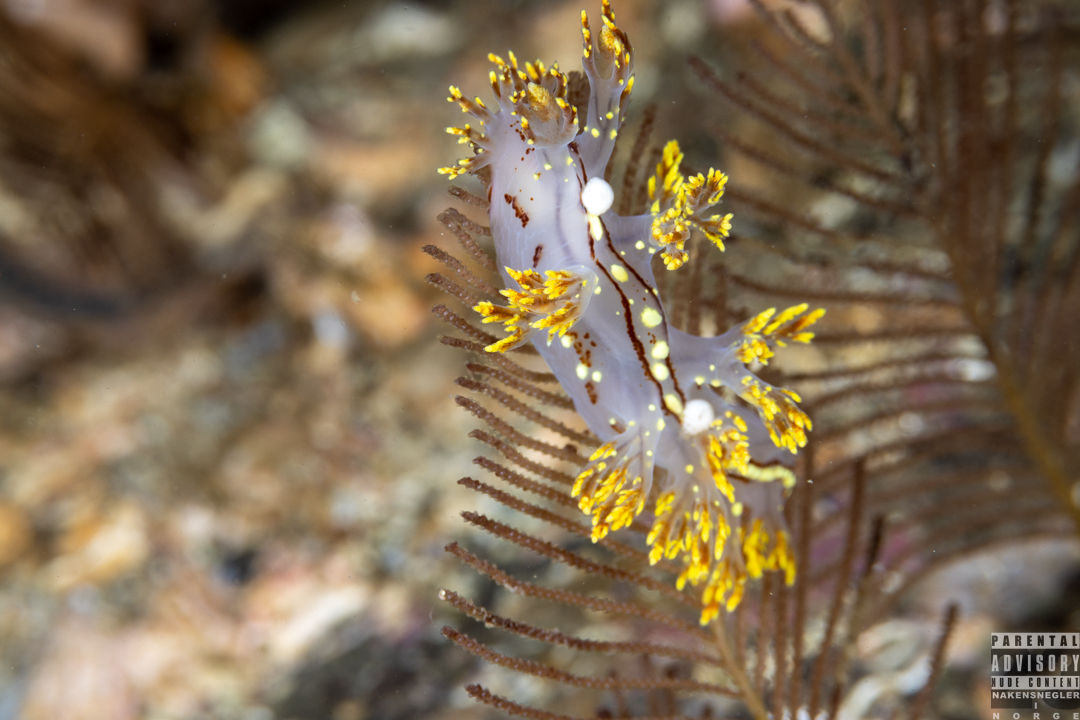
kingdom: Animalia
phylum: Mollusca
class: Gastropoda
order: Nudibranchia
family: Dendronotidae
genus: Dendronotus
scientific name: Dendronotus yrjargul
